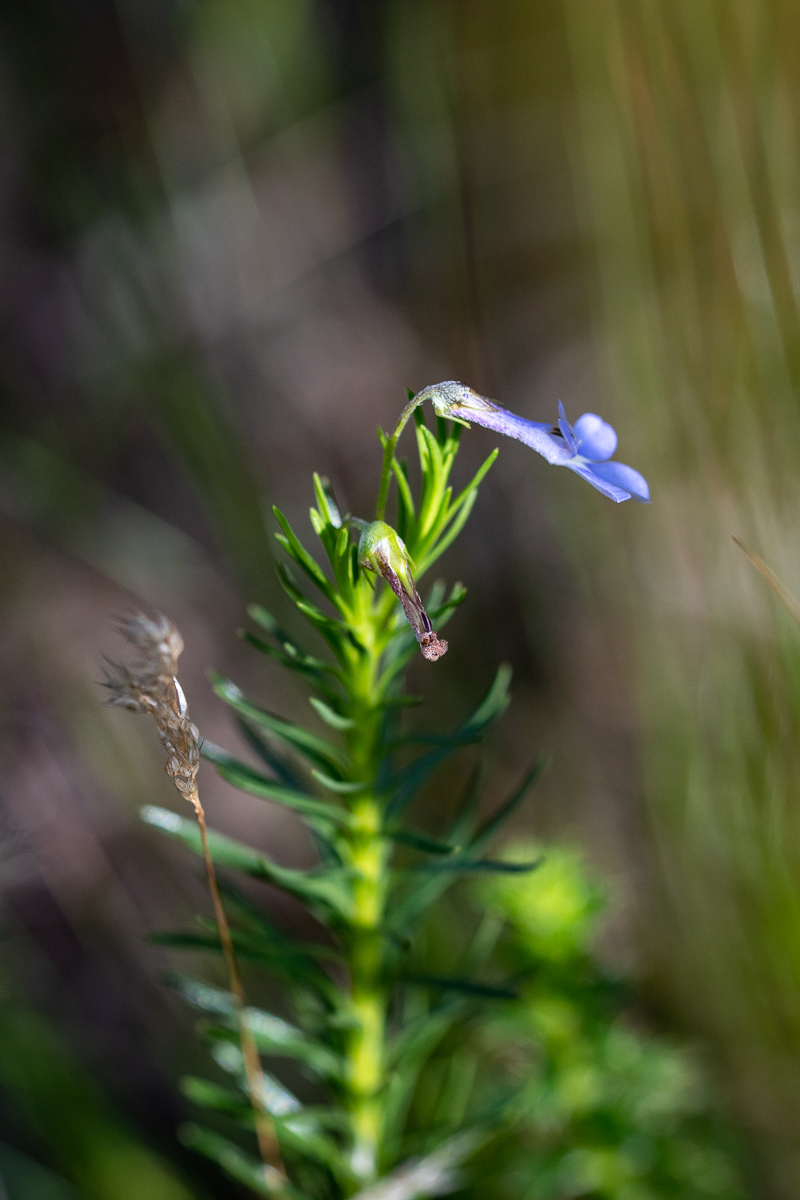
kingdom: Plantae
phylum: Tracheophyta
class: Magnoliopsida
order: Asterales
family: Campanulaceae
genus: Lobelia
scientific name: Lobelia pinifolia
